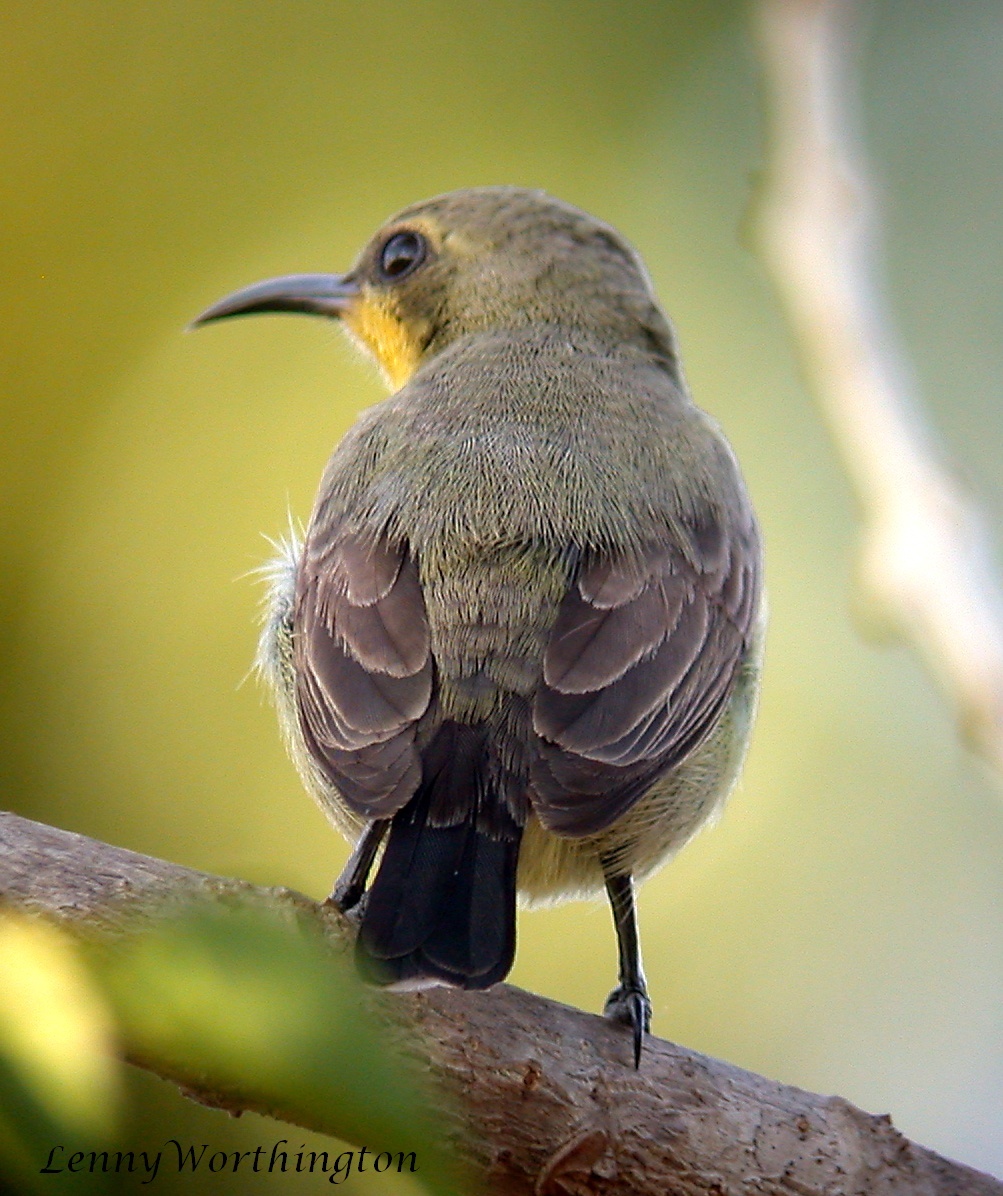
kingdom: Animalia
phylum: Chordata
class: Aves
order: Passeriformes
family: Nectariniidae
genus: Cinnyris
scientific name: Cinnyris asiaticus
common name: Purple sunbird
